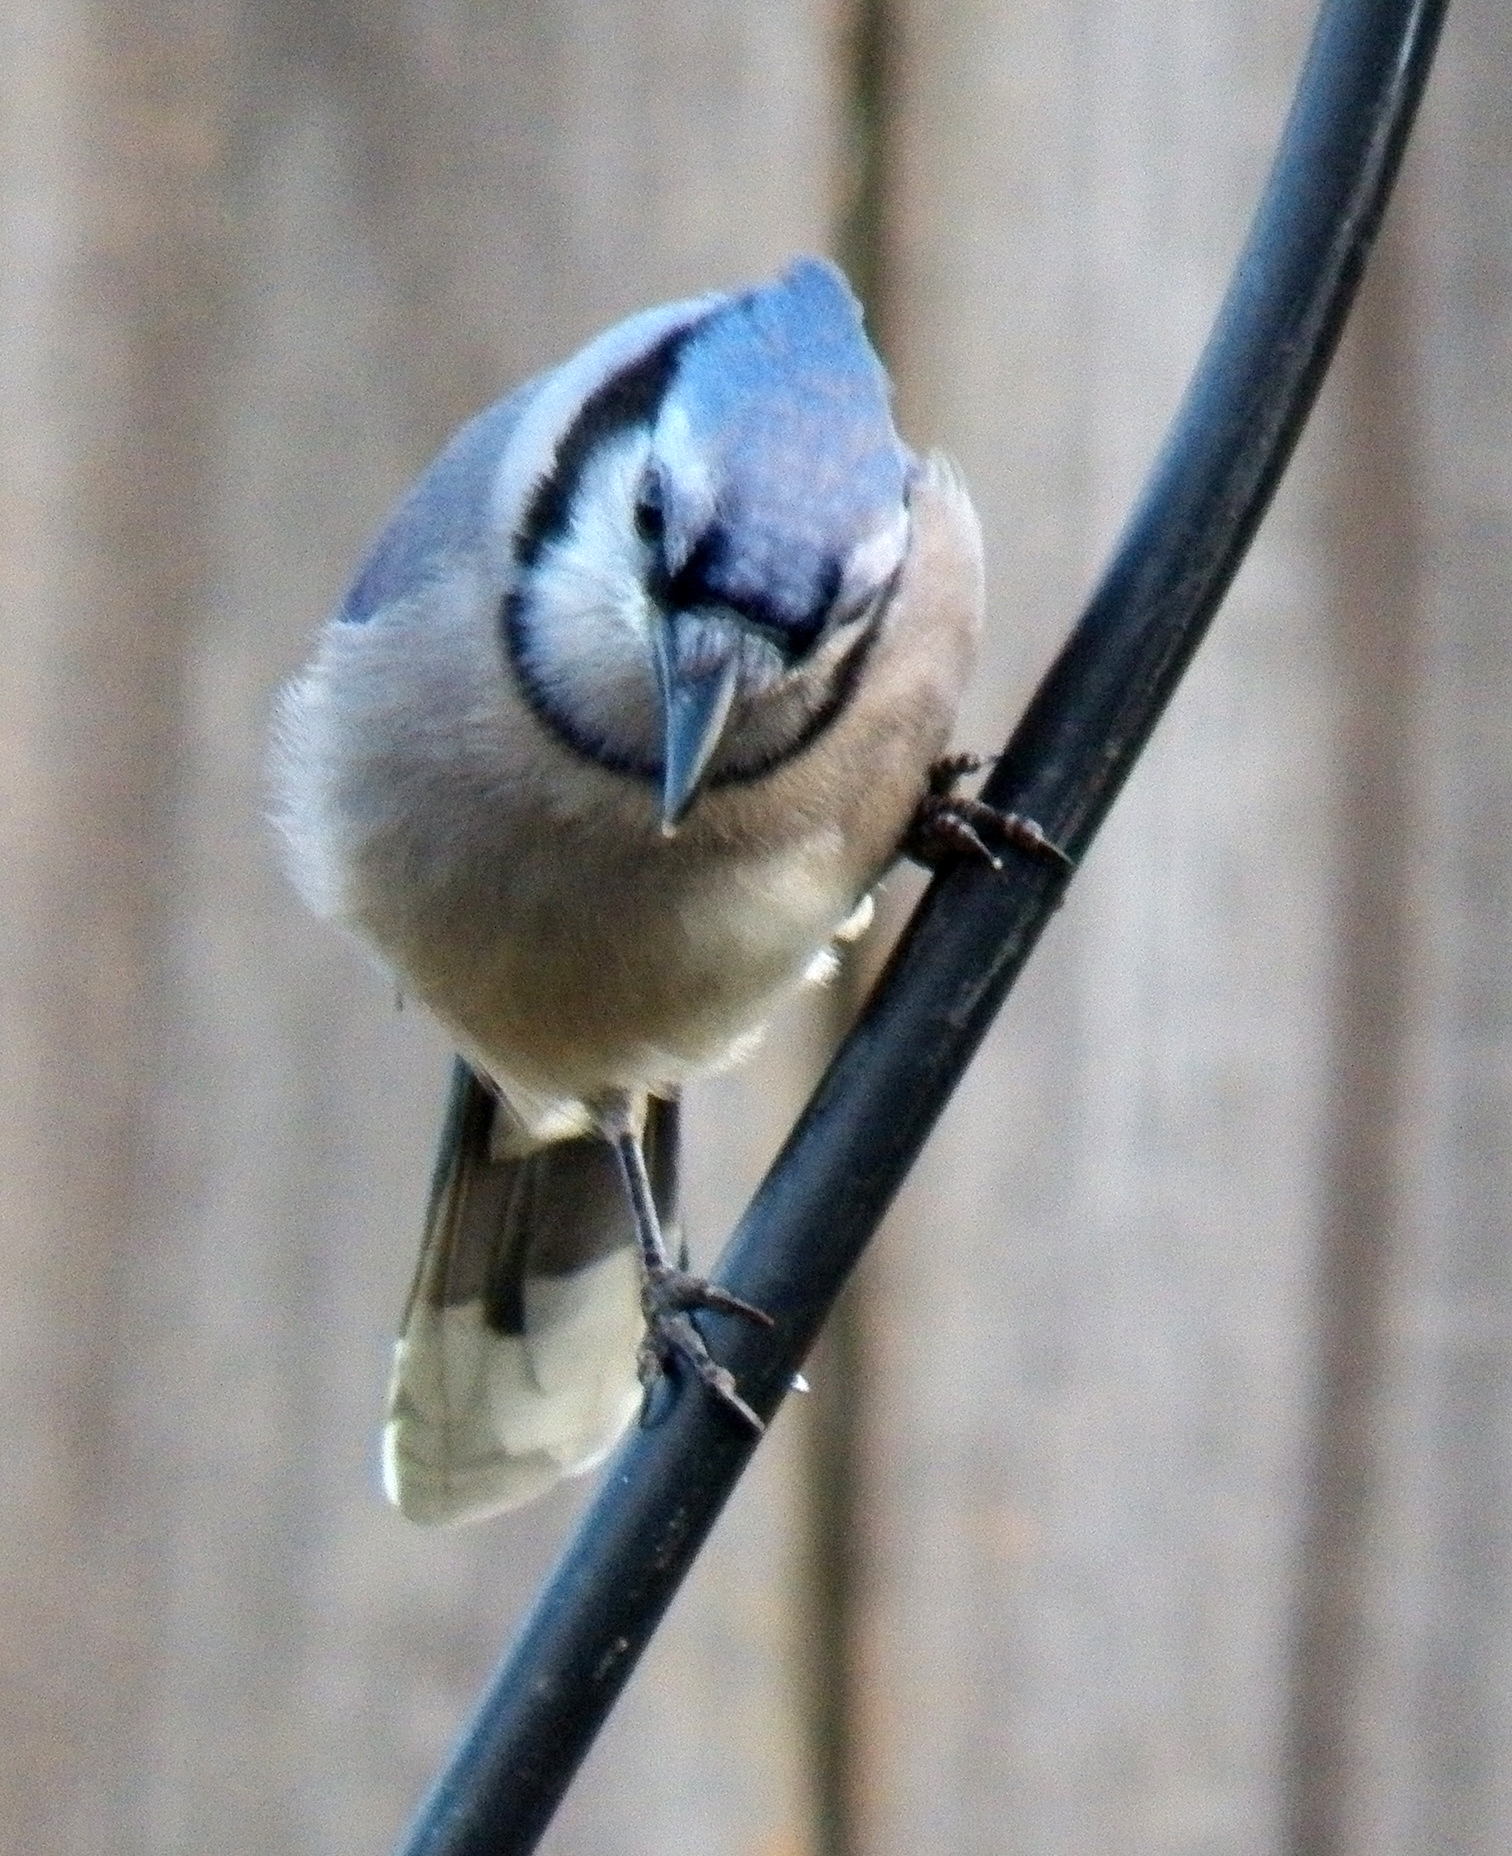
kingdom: Animalia
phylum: Chordata
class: Aves
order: Passeriformes
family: Corvidae
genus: Cyanocitta
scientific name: Cyanocitta cristata
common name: Blue jay
